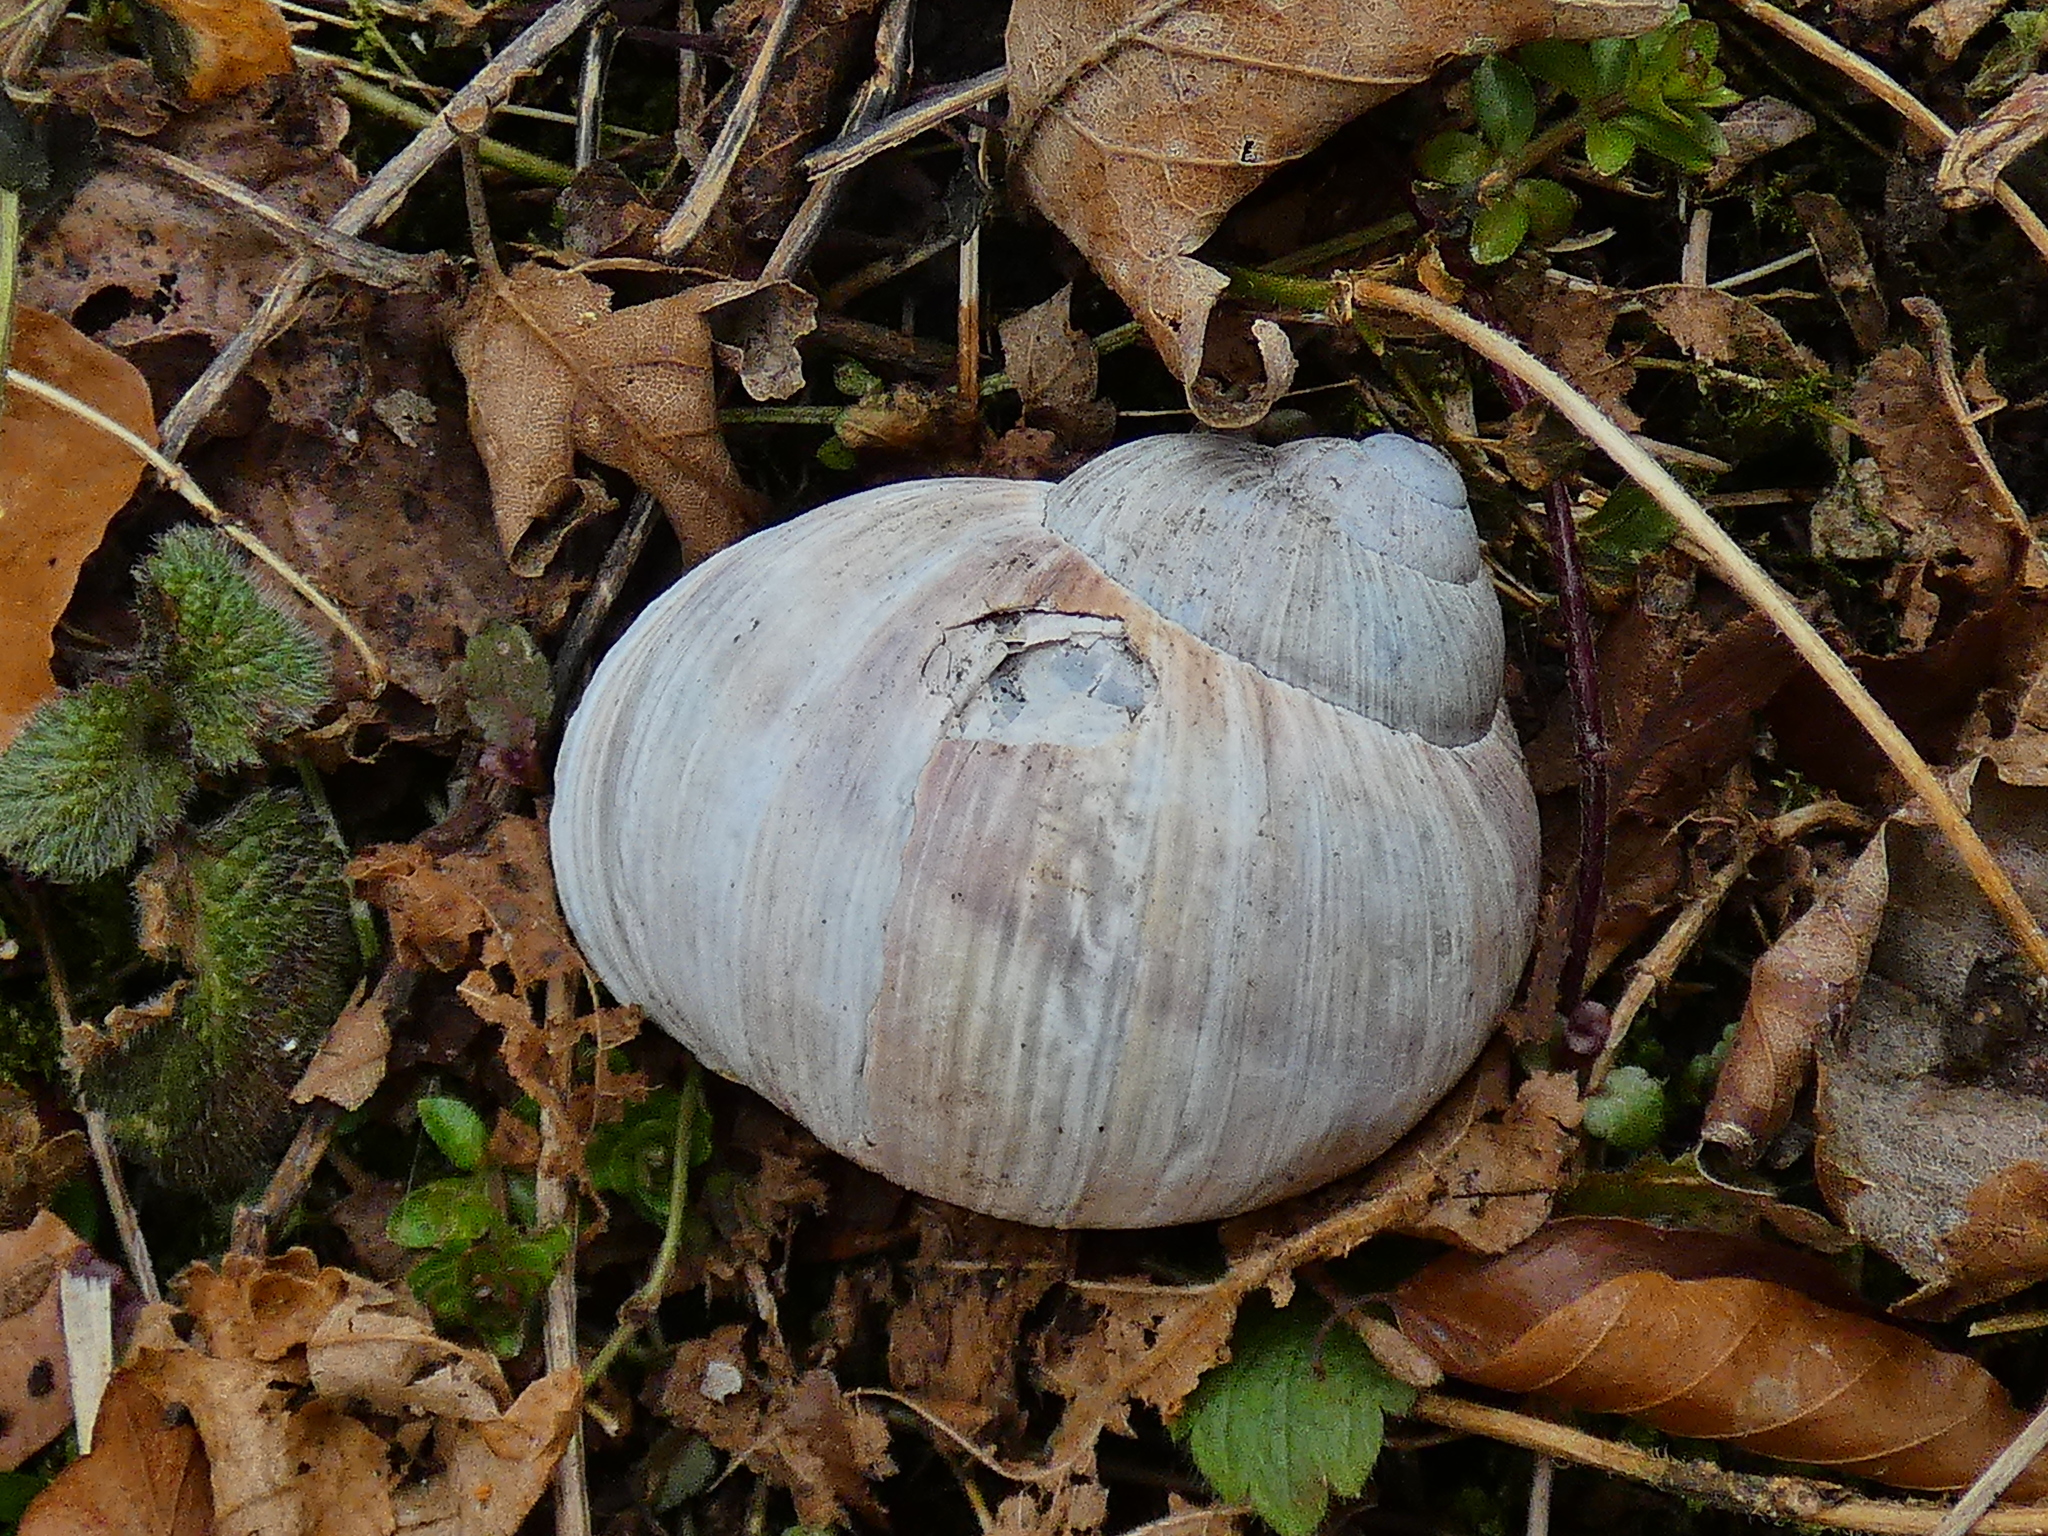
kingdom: Animalia
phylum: Mollusca
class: Gastropoda
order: Stylommatophora
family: Helicidae
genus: Helix
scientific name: Helix pomatia
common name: Roman snail
